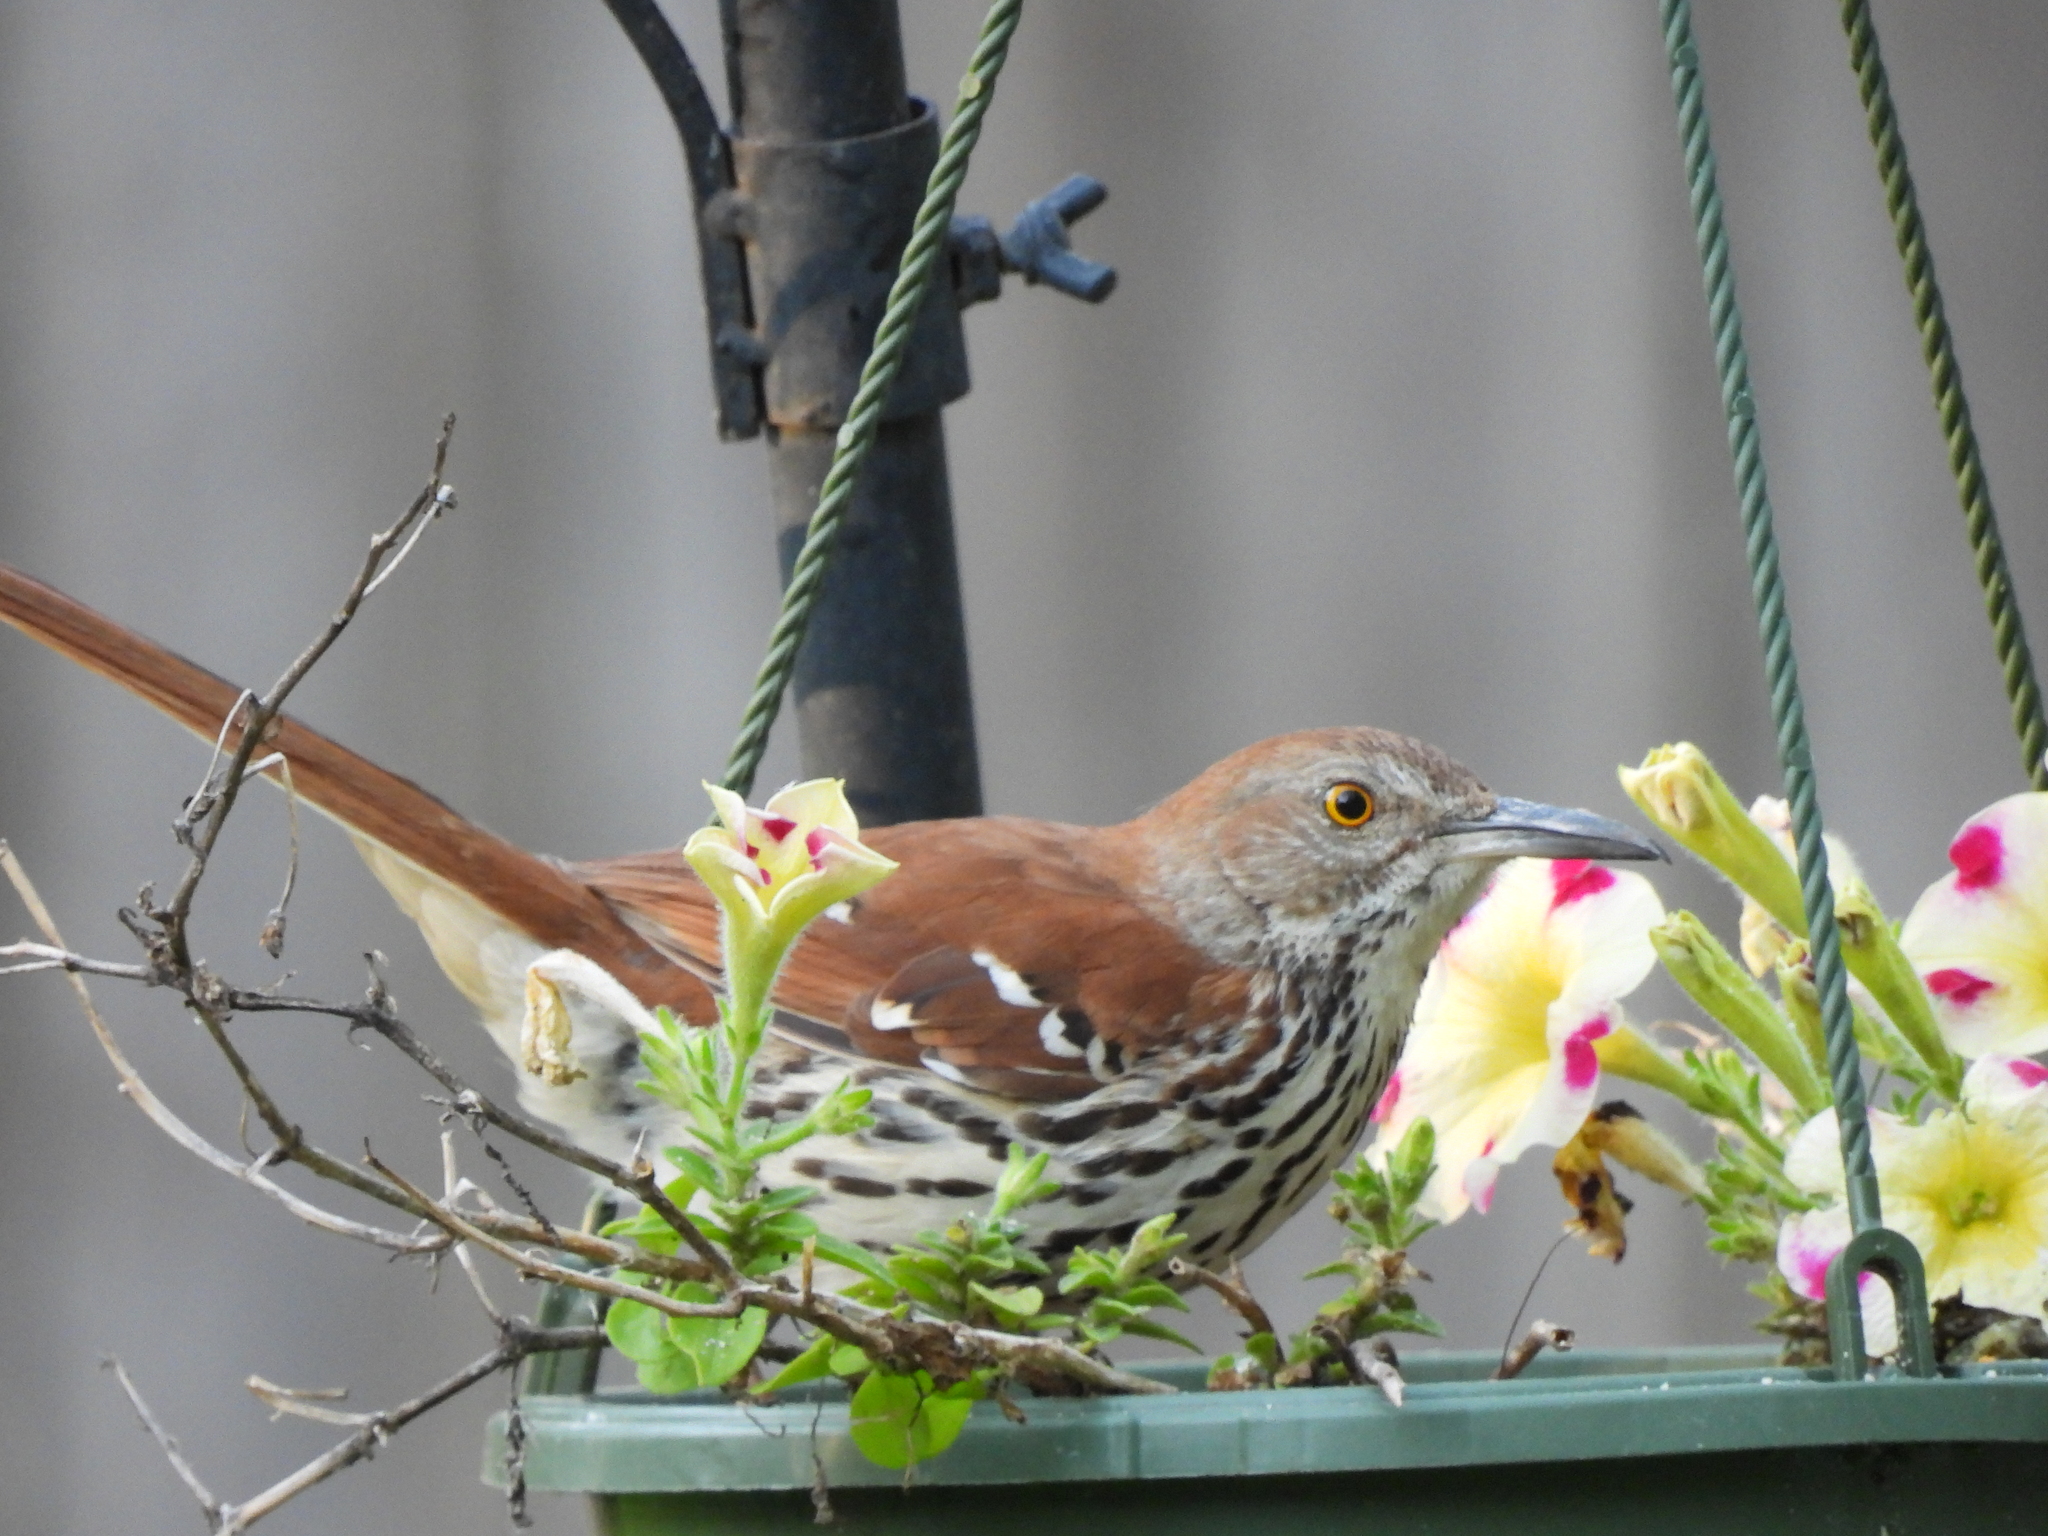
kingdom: Animalia
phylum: Chordata
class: Aves
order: Passeriformes
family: Mimidae
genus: Toxostoma
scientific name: Toxostoma rufum
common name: Brown thrasher
